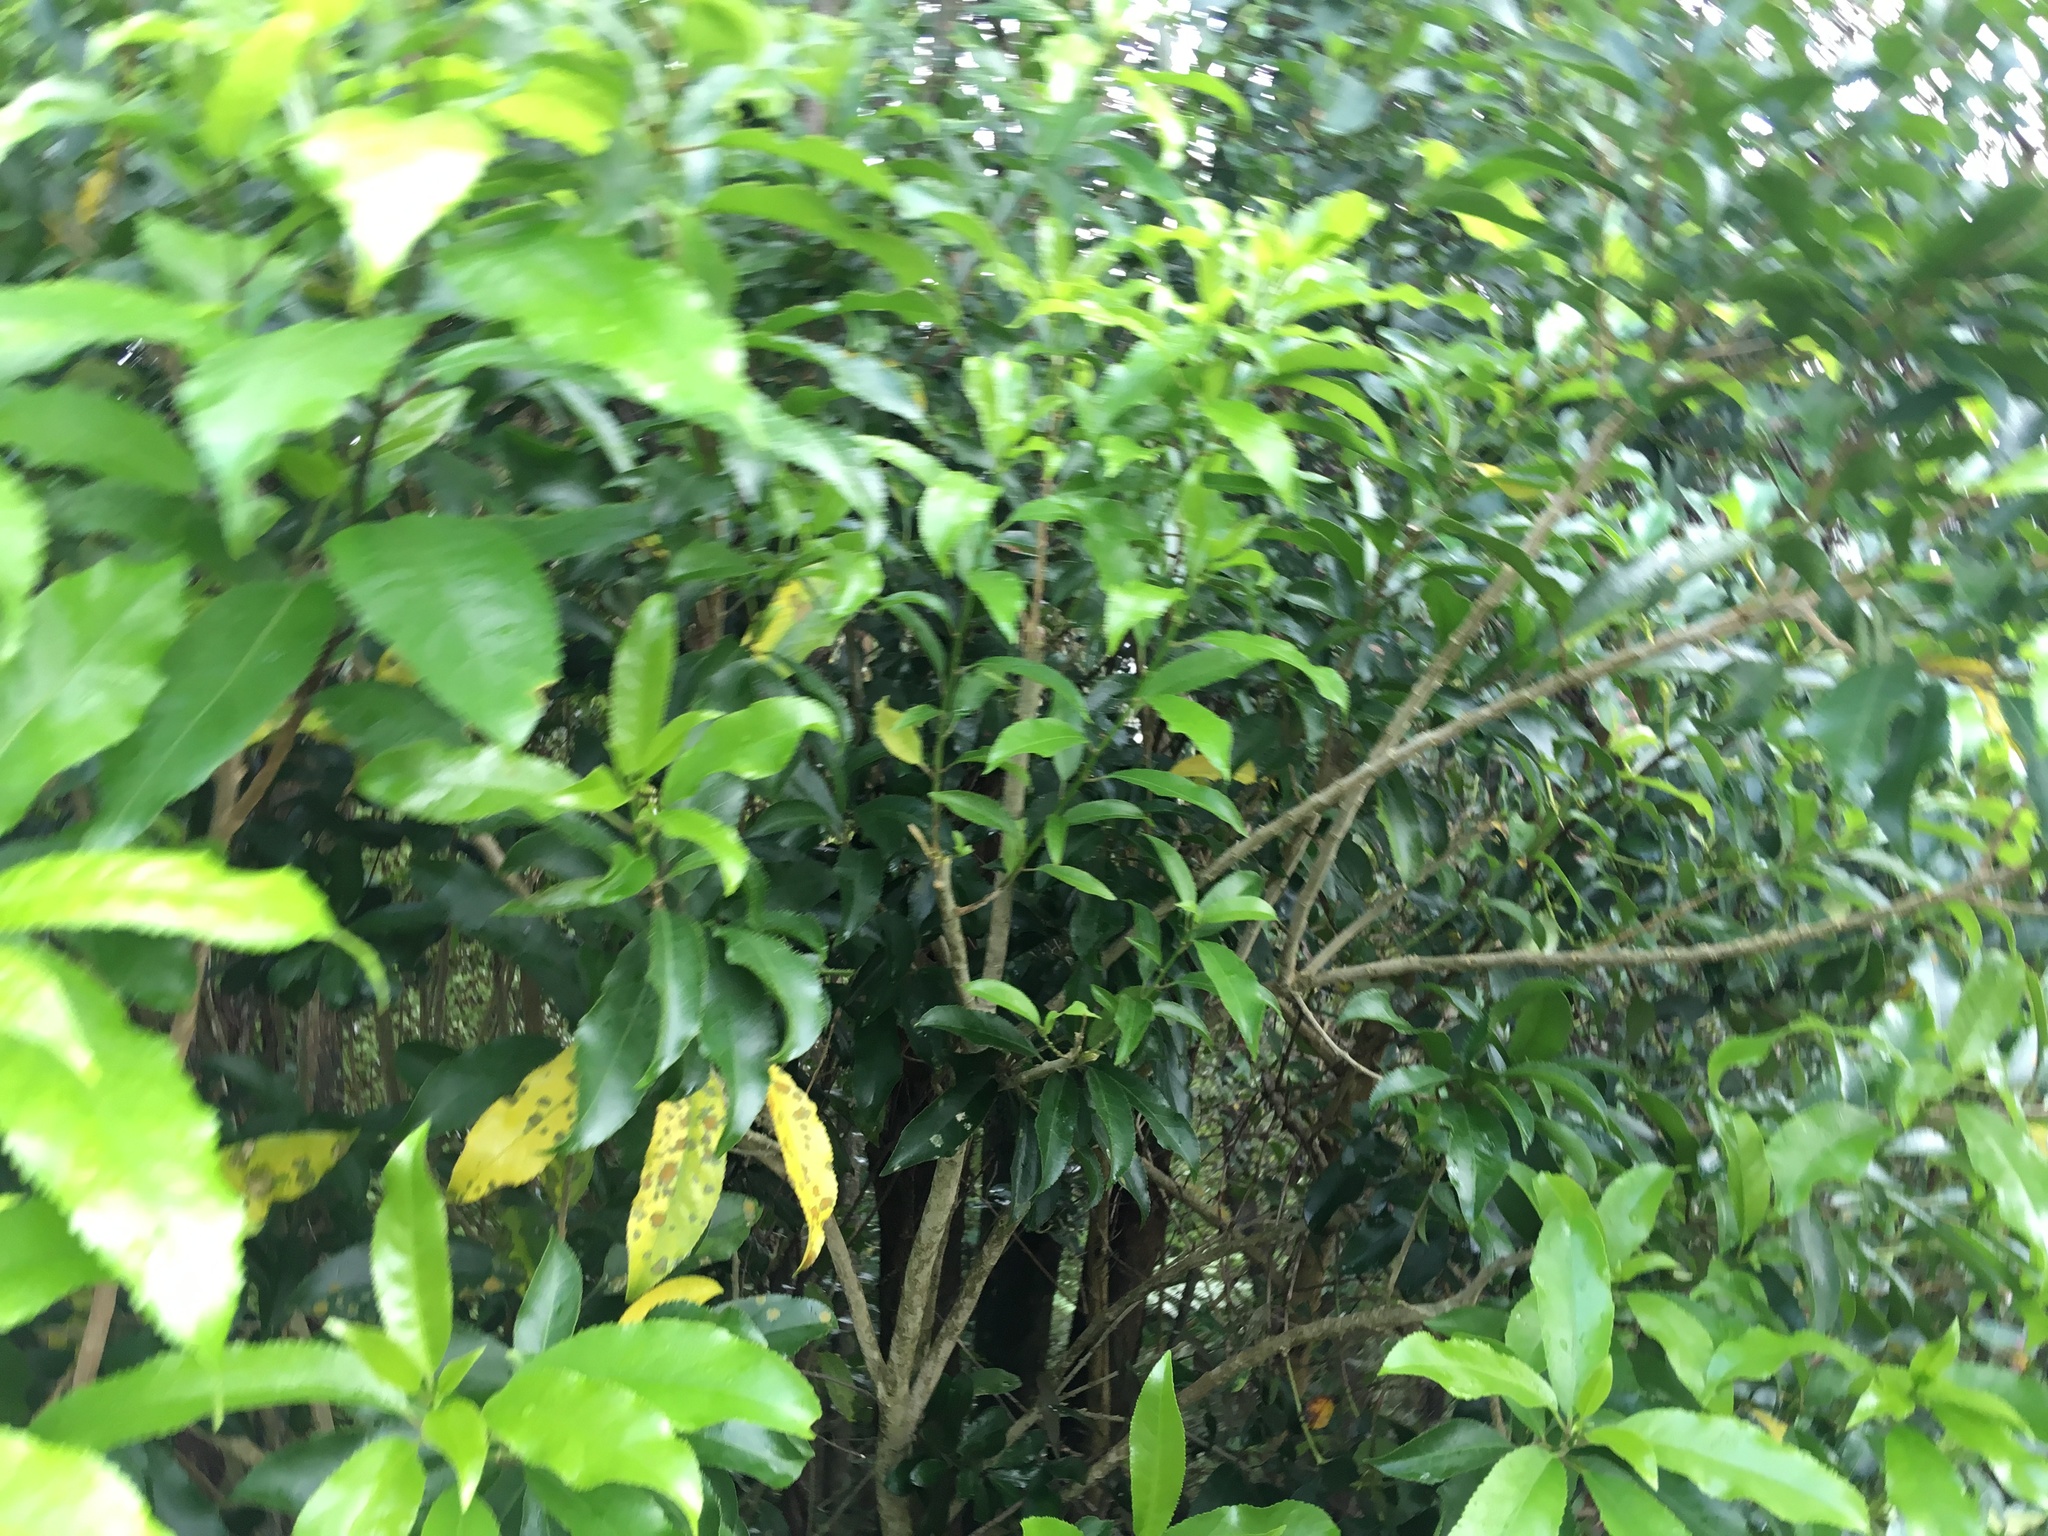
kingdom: Plantae
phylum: Tracheophyta
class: Magnoliopsida
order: Malpighiales
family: Violaceae
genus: Melicytus
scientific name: Melicytus ramiflorus
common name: Mahoe
